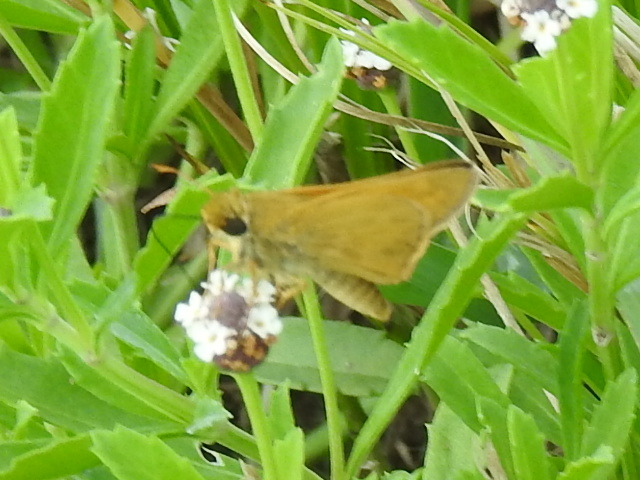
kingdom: Animalia
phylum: Arthropoda
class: Insecta
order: Lepidoptera
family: Hesperiidae
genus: Atalopedes
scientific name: Atalopedes
